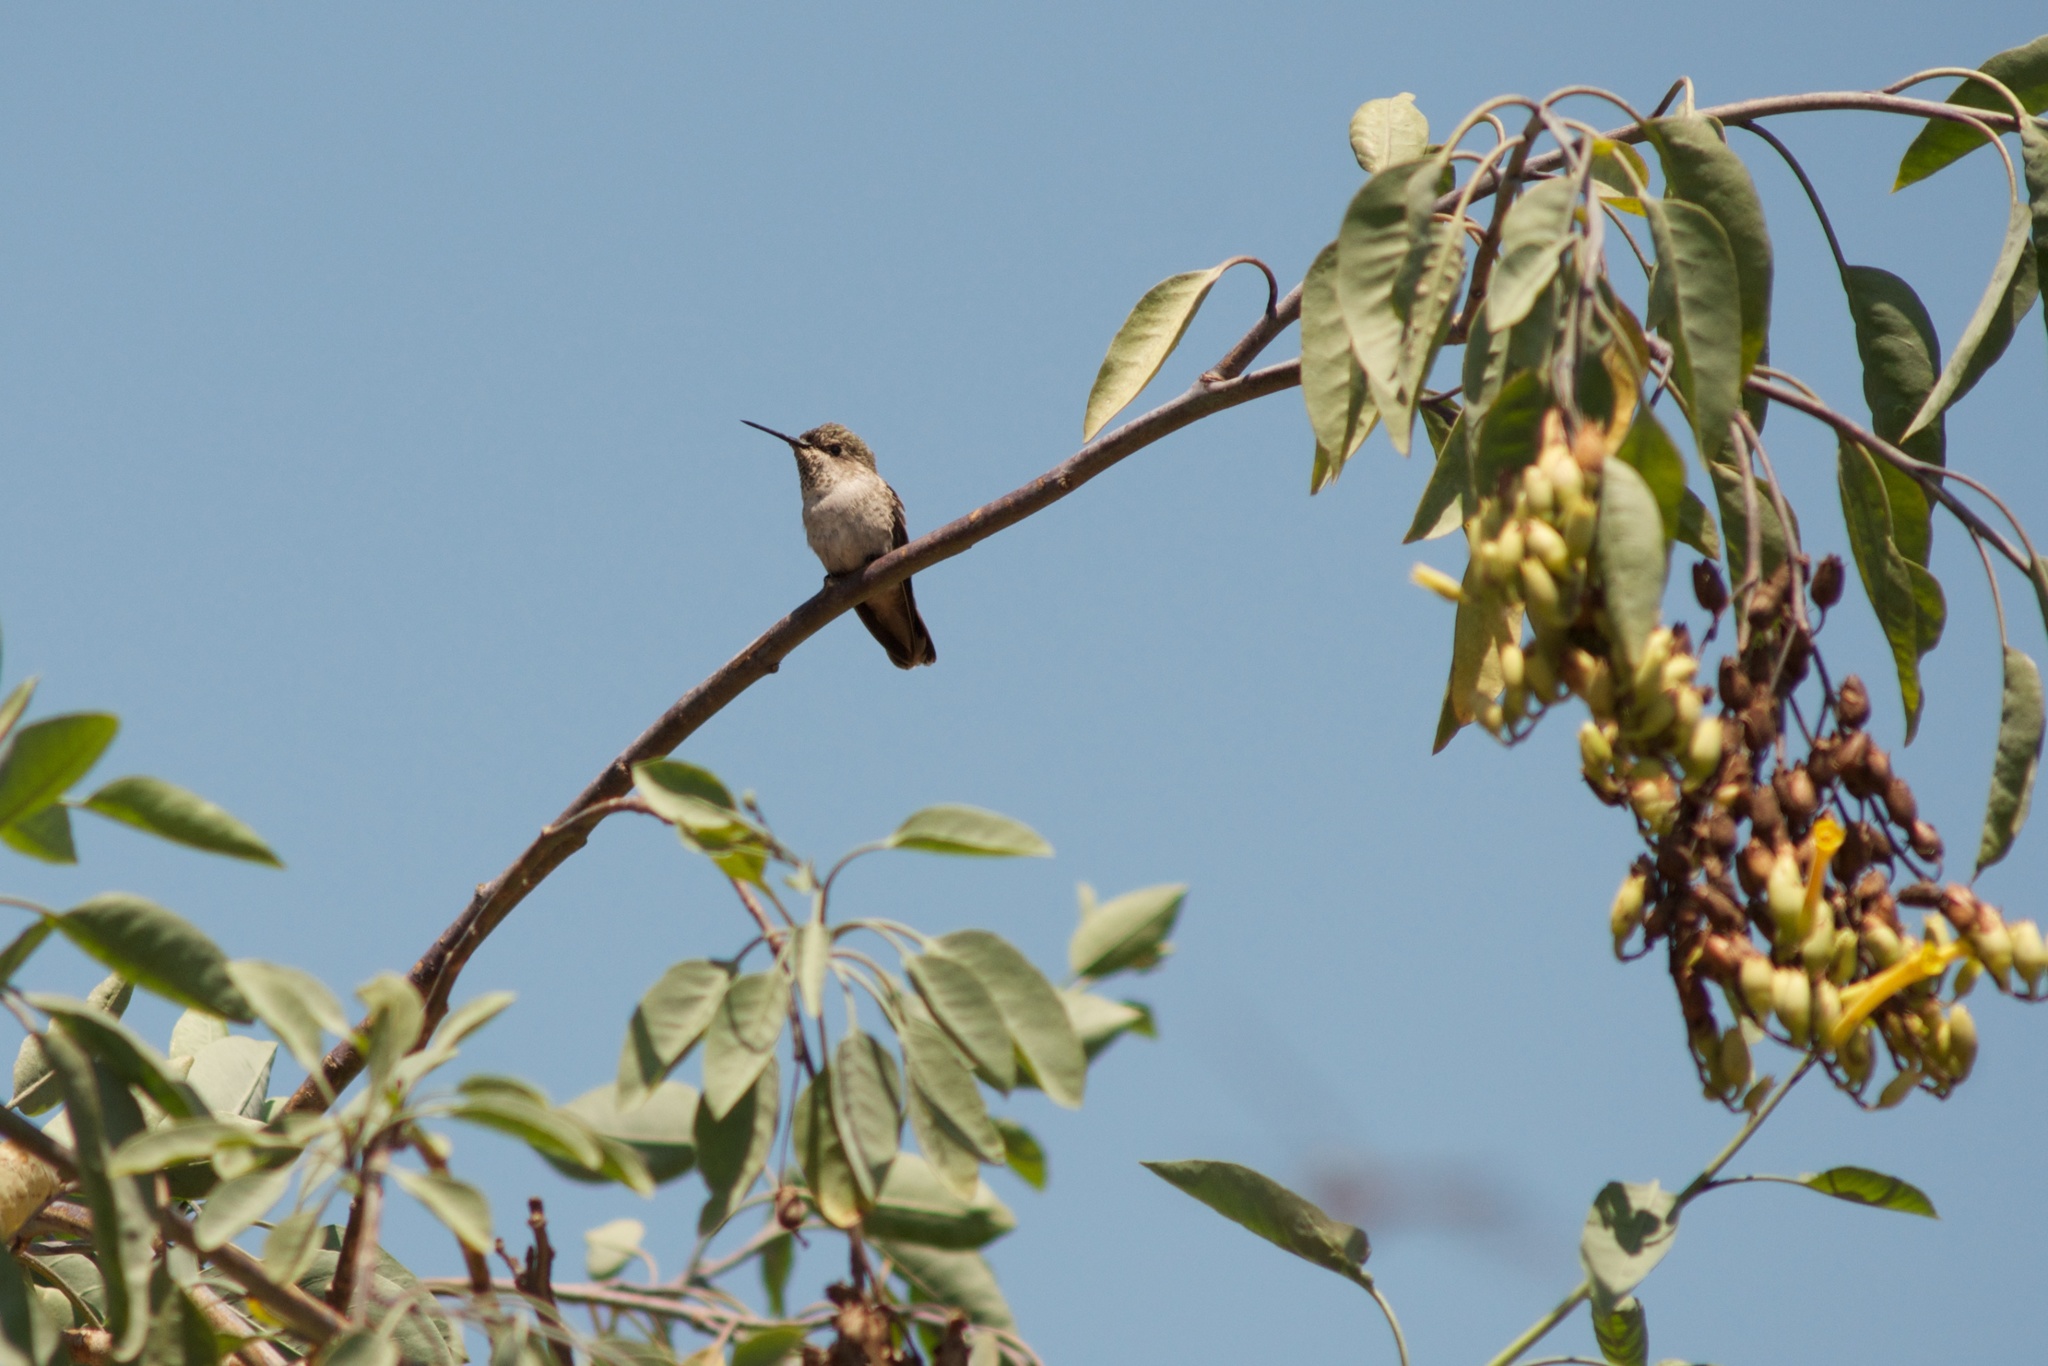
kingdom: Animalia
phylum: Chordata
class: Aves
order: Apodiformes
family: Trochilidae
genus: Calypte
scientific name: Calypte anna
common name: Anna's hummingbird
